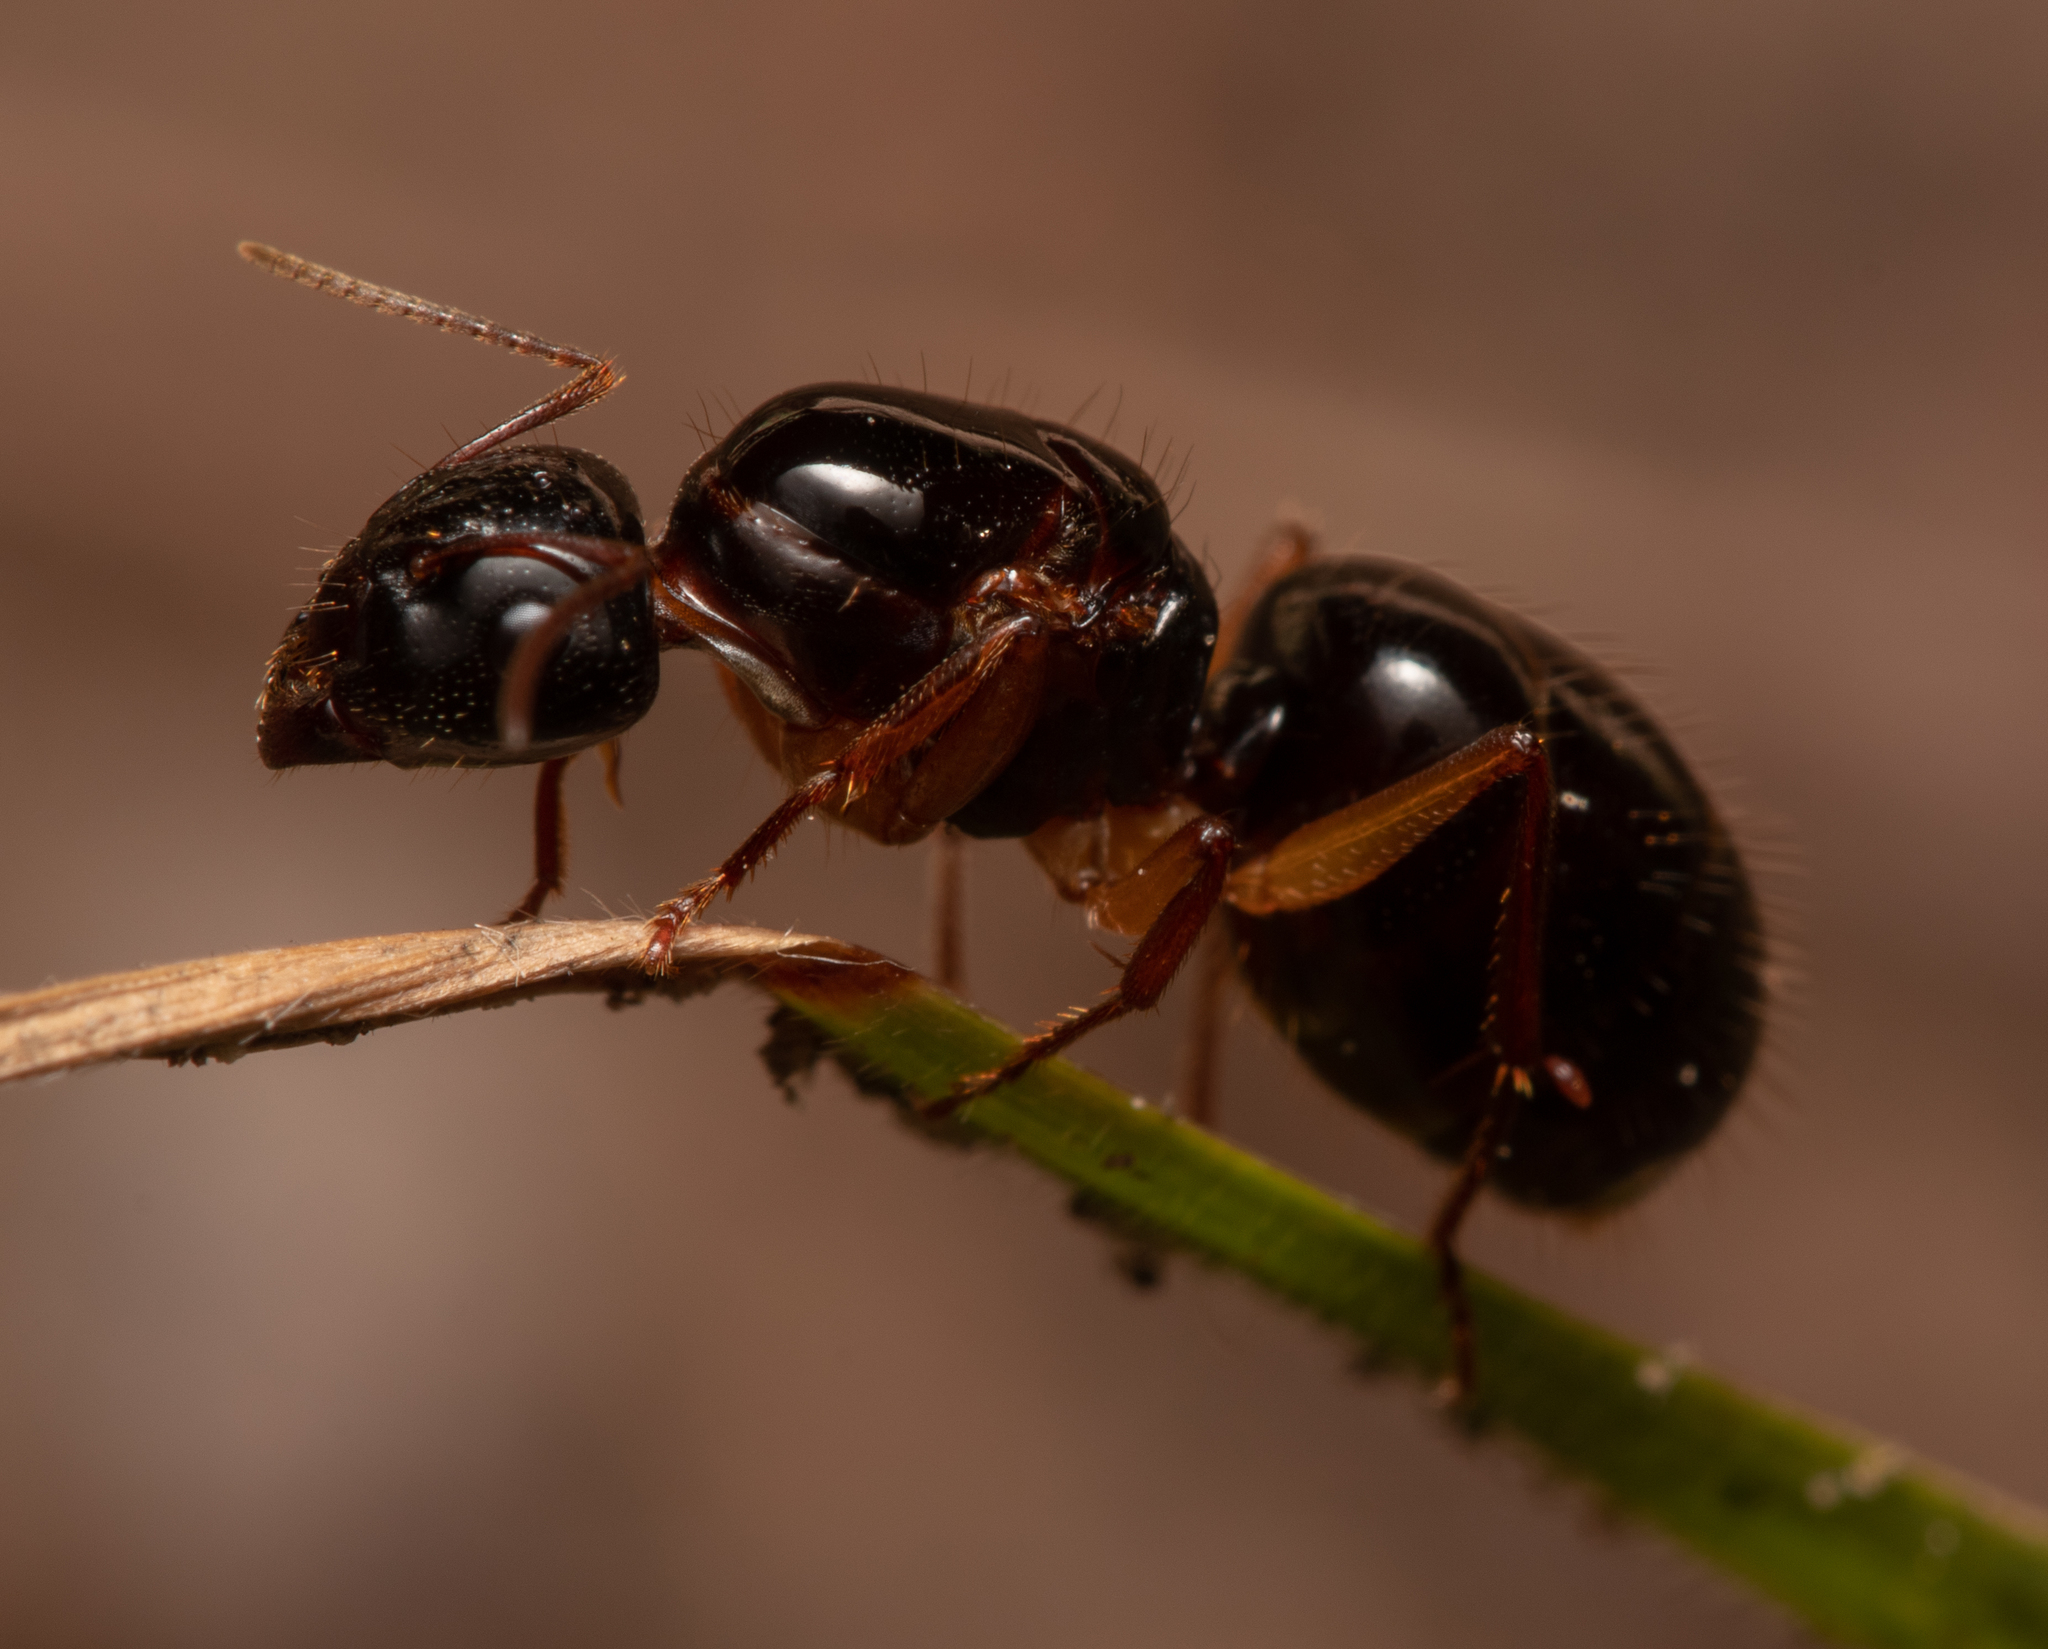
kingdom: Animalia
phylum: Arthropoda
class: Insecta
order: Hymenoptera
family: Formicidae
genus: Camponotus
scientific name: Camponotus lownei
